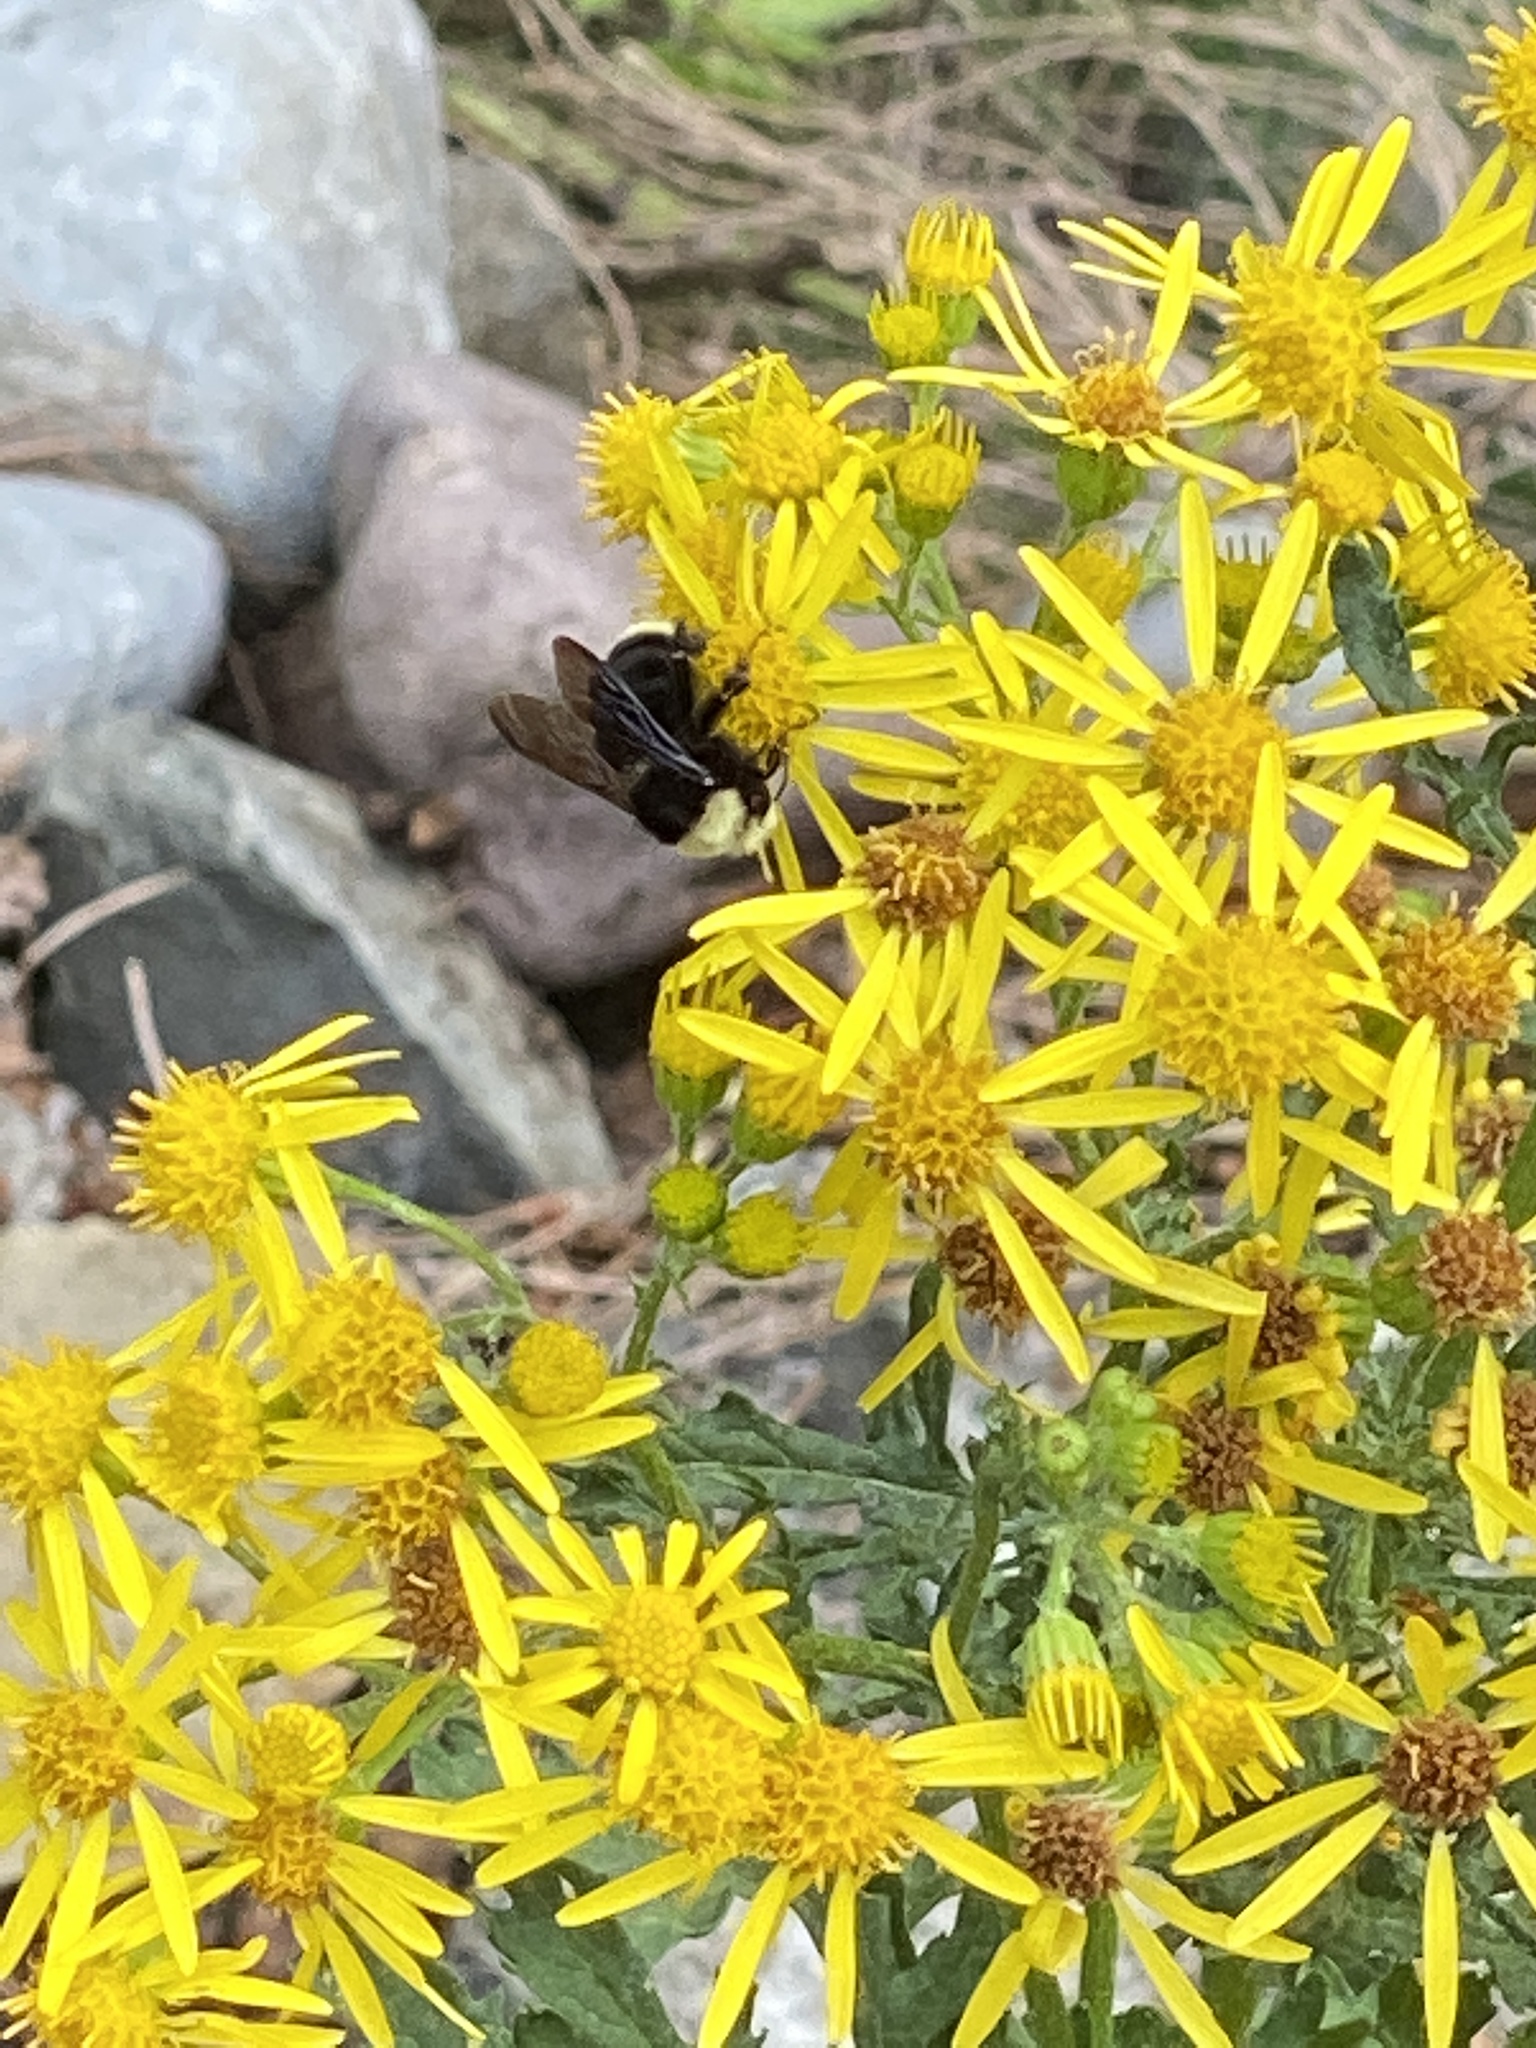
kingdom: Animalia
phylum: Arthropoda
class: Insecta
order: Hymenoptera
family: Apidae
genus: Bombus
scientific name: Bombus vosnesenskii
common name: Vosnesensky bumble bee
